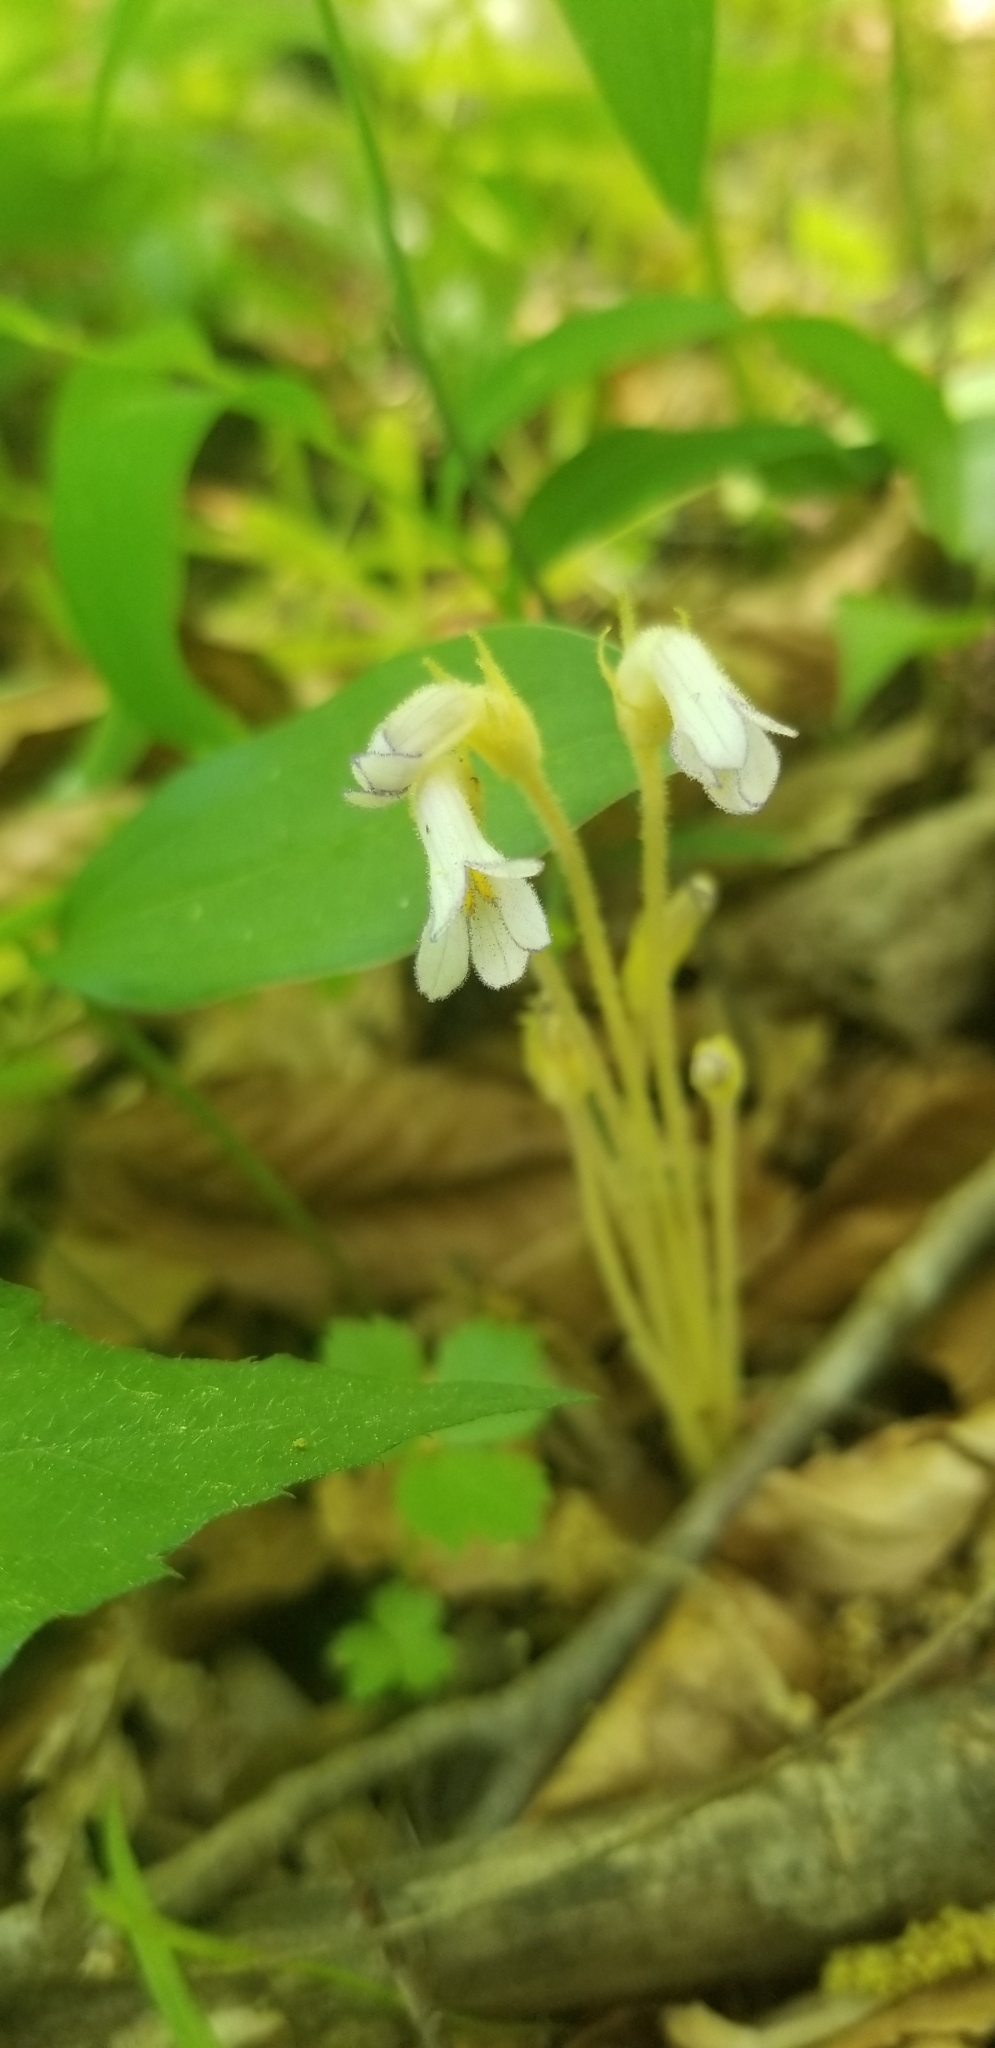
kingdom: Plantae
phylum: Tracheophyta
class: Magnoliopsida
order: Lamiales
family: Orobanchaceae
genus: Aphyllon
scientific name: Aphyllon uniflorum
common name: One-flowered broomrape
